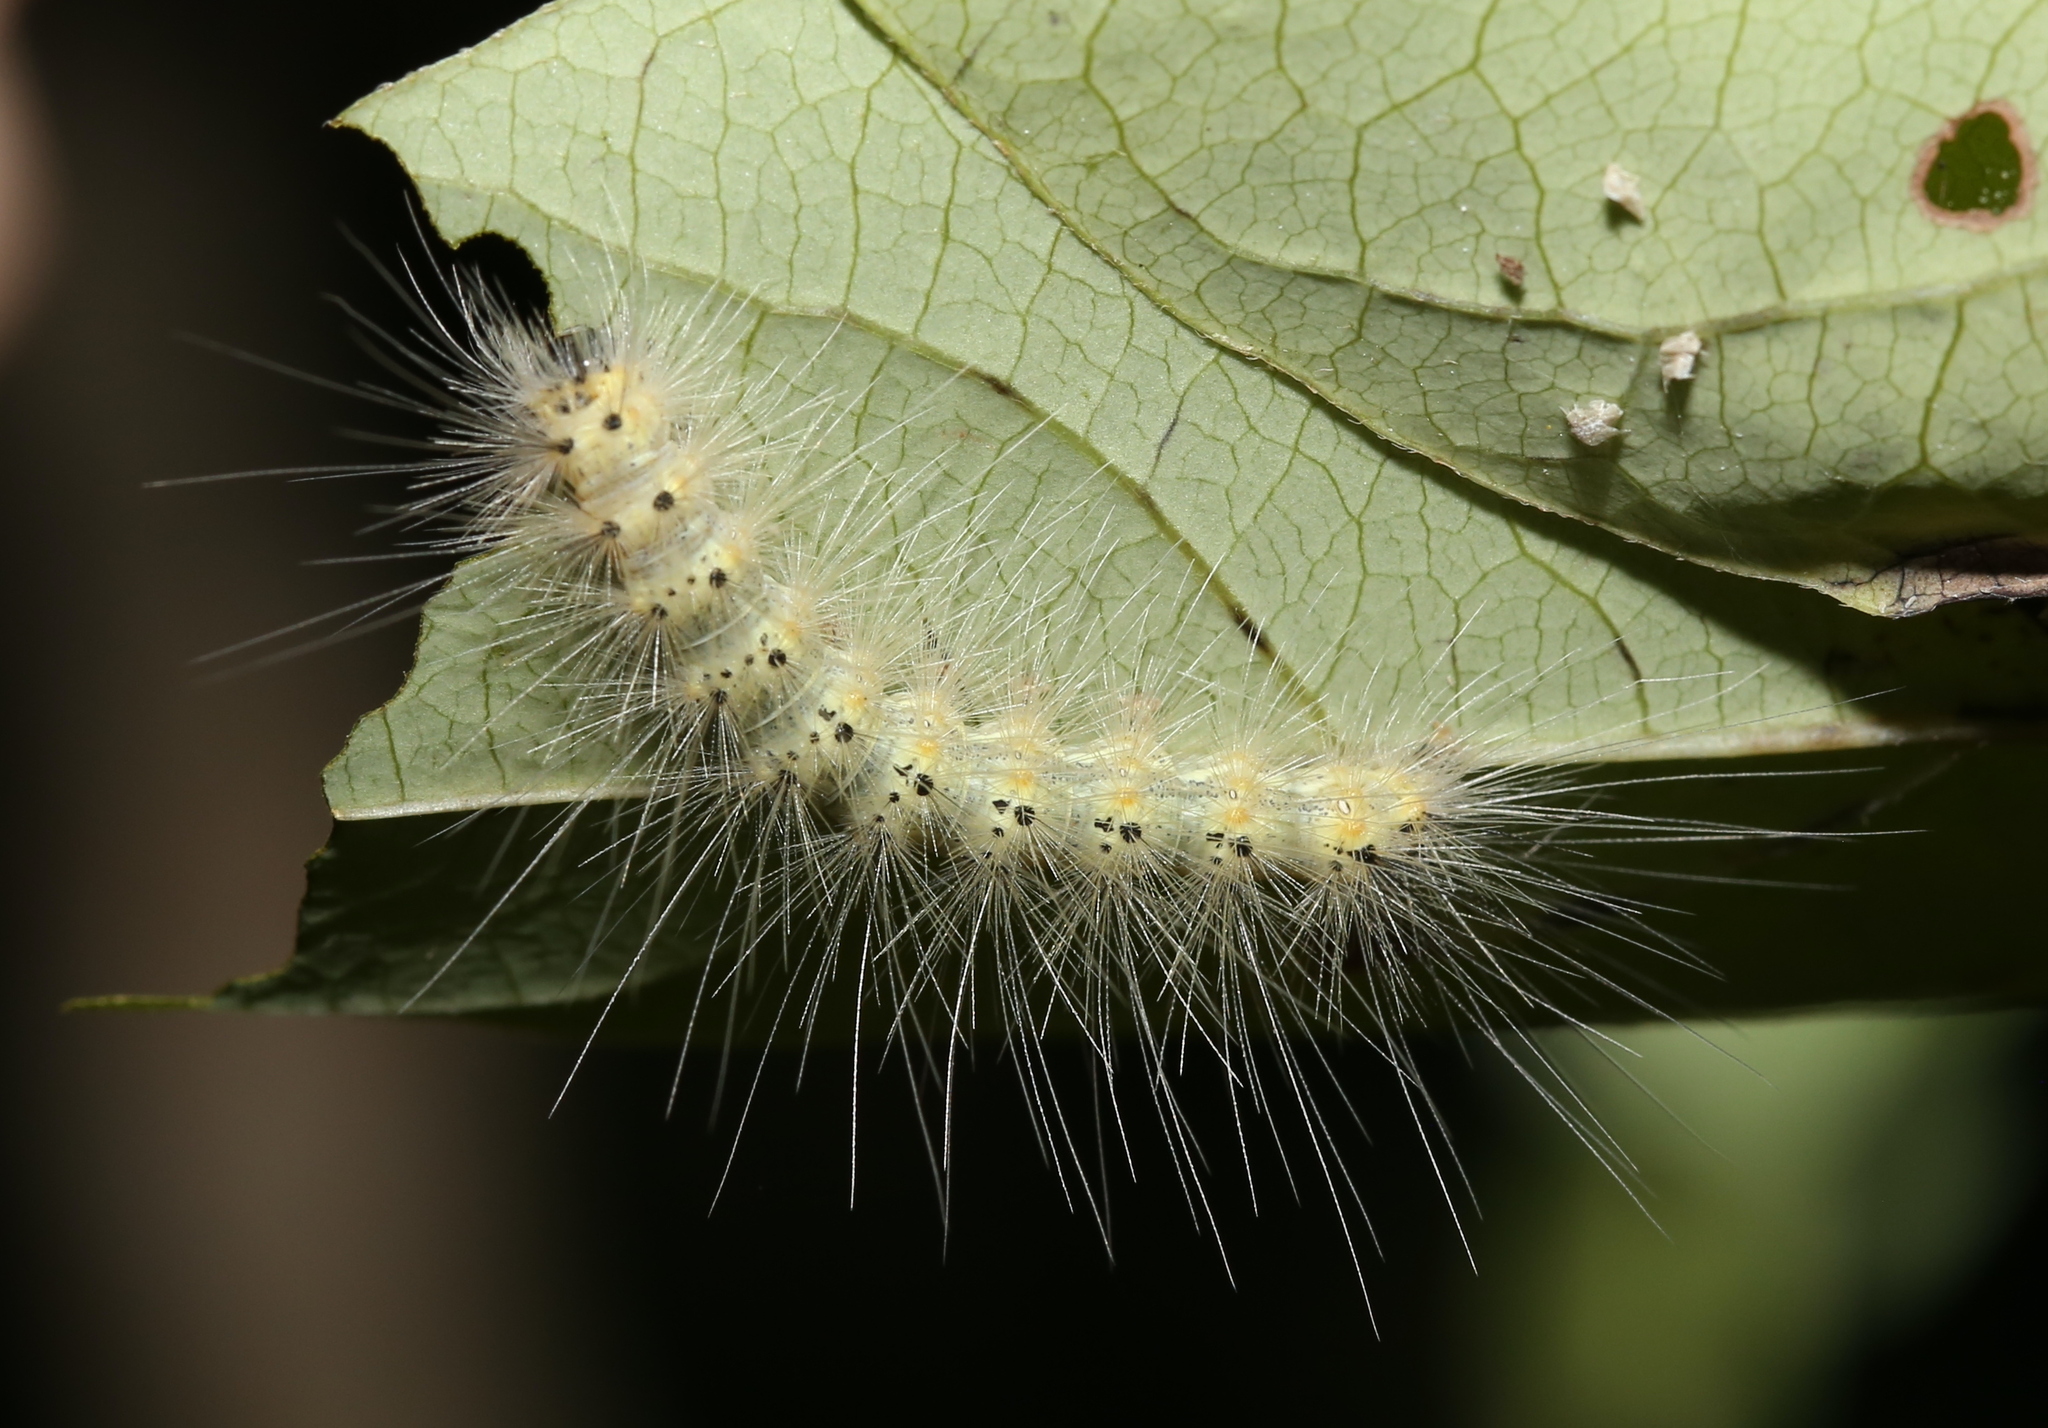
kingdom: Animalia
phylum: Arthropoda
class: Insecta
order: Lepidoptera
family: Erebidae
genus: Hyphantria
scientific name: Hyphantria cunea
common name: American white moth
